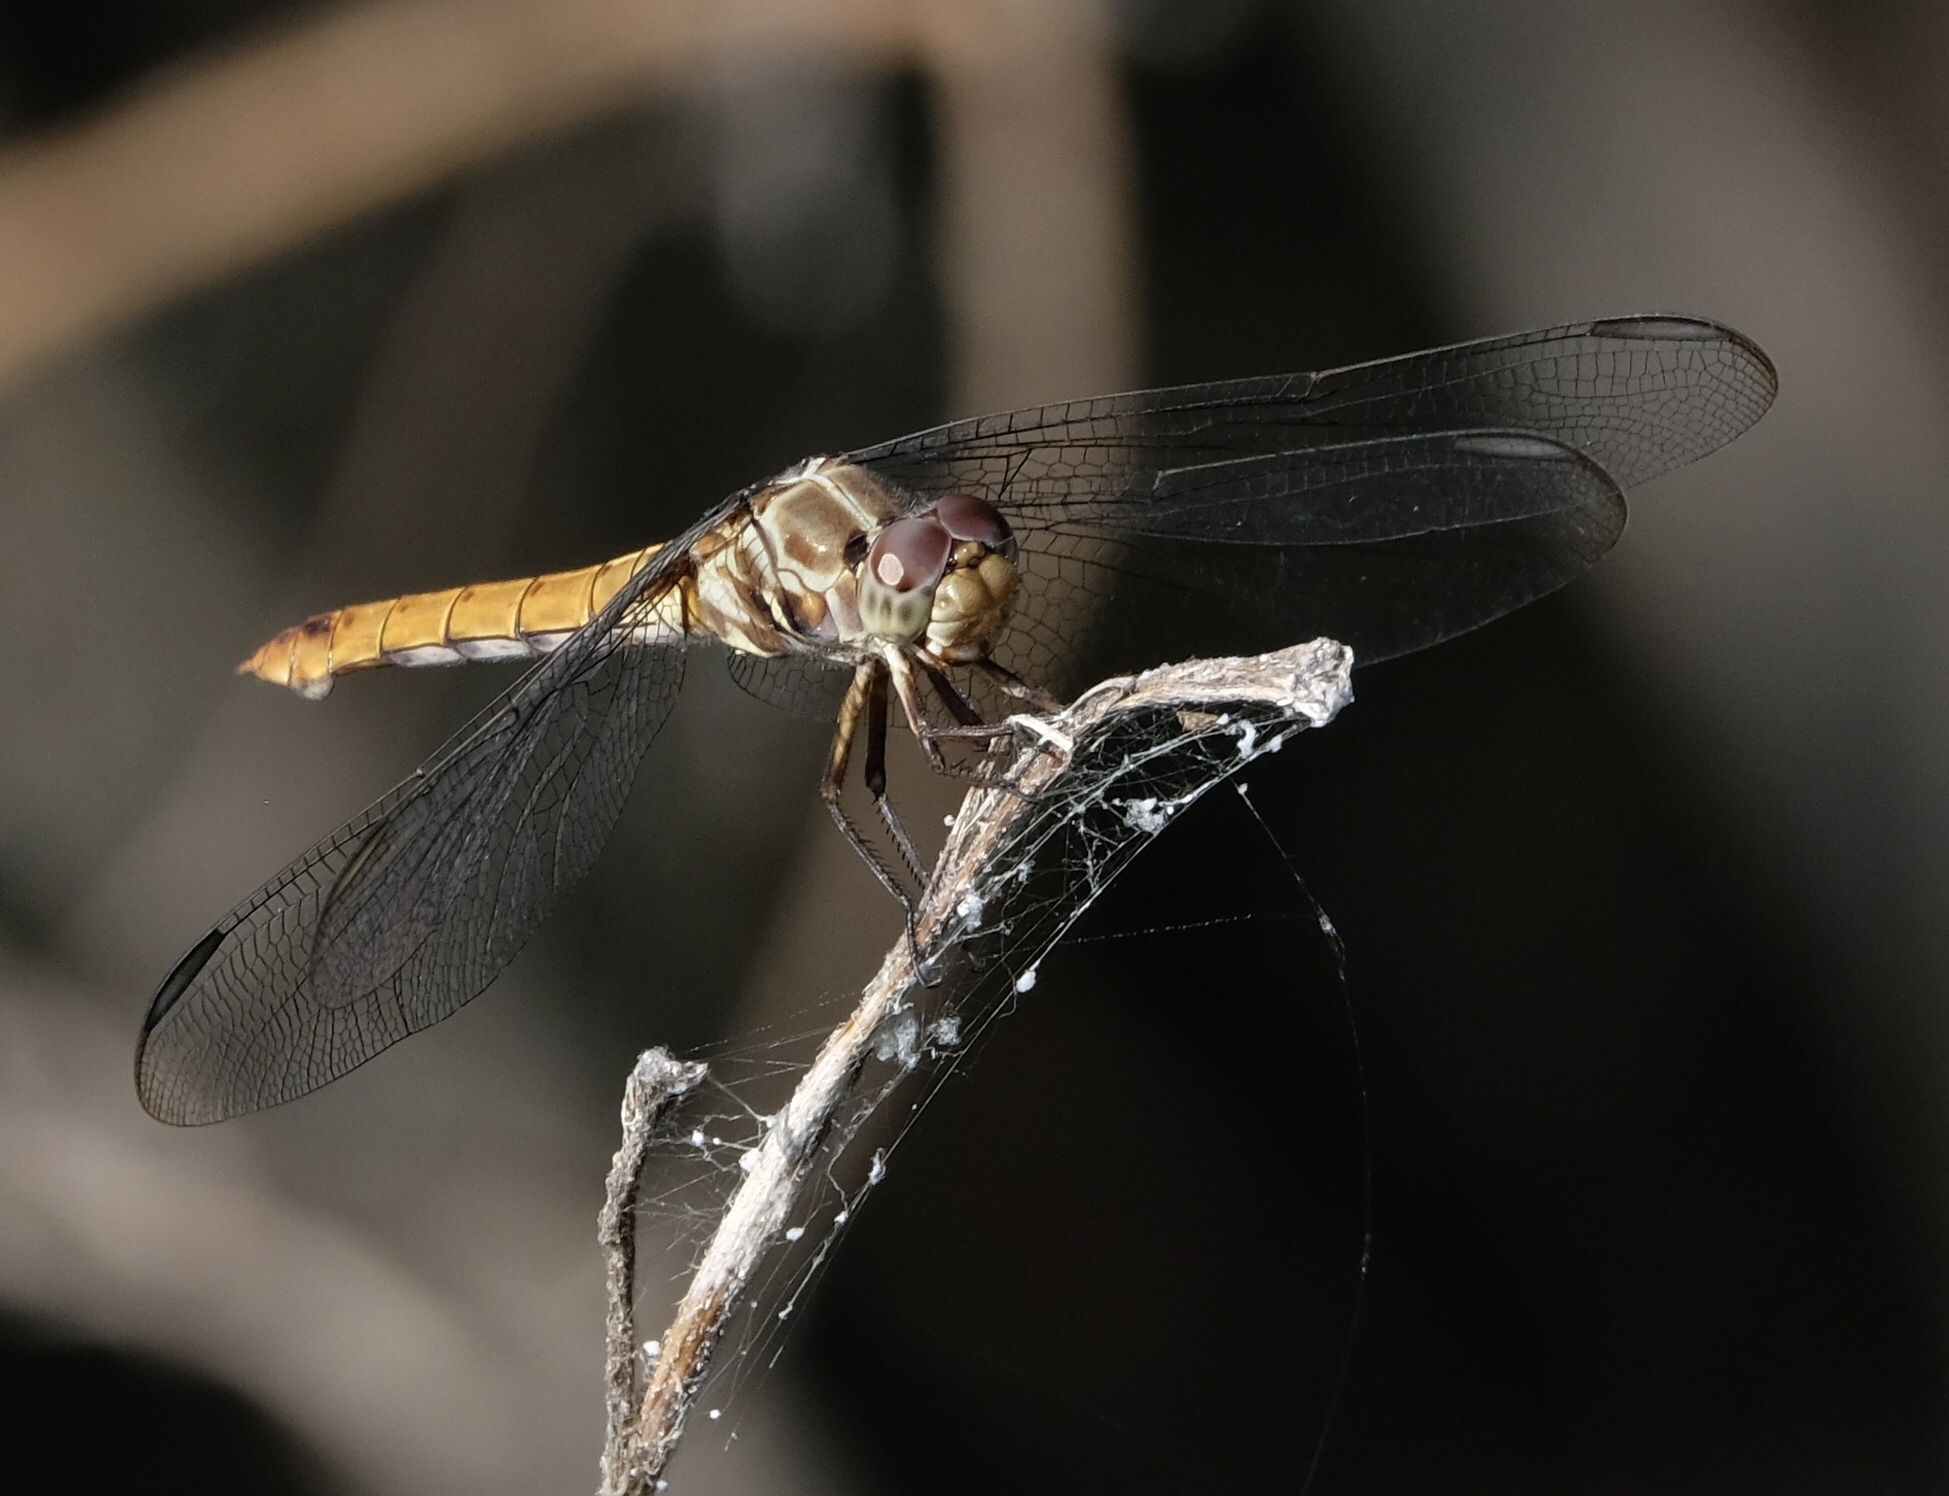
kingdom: Animalia
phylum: Arthropoda
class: Insecta
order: Odonata
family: Libellulidae
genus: Orthemis
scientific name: Orthemis ferruginea
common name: Roseate skimmer
